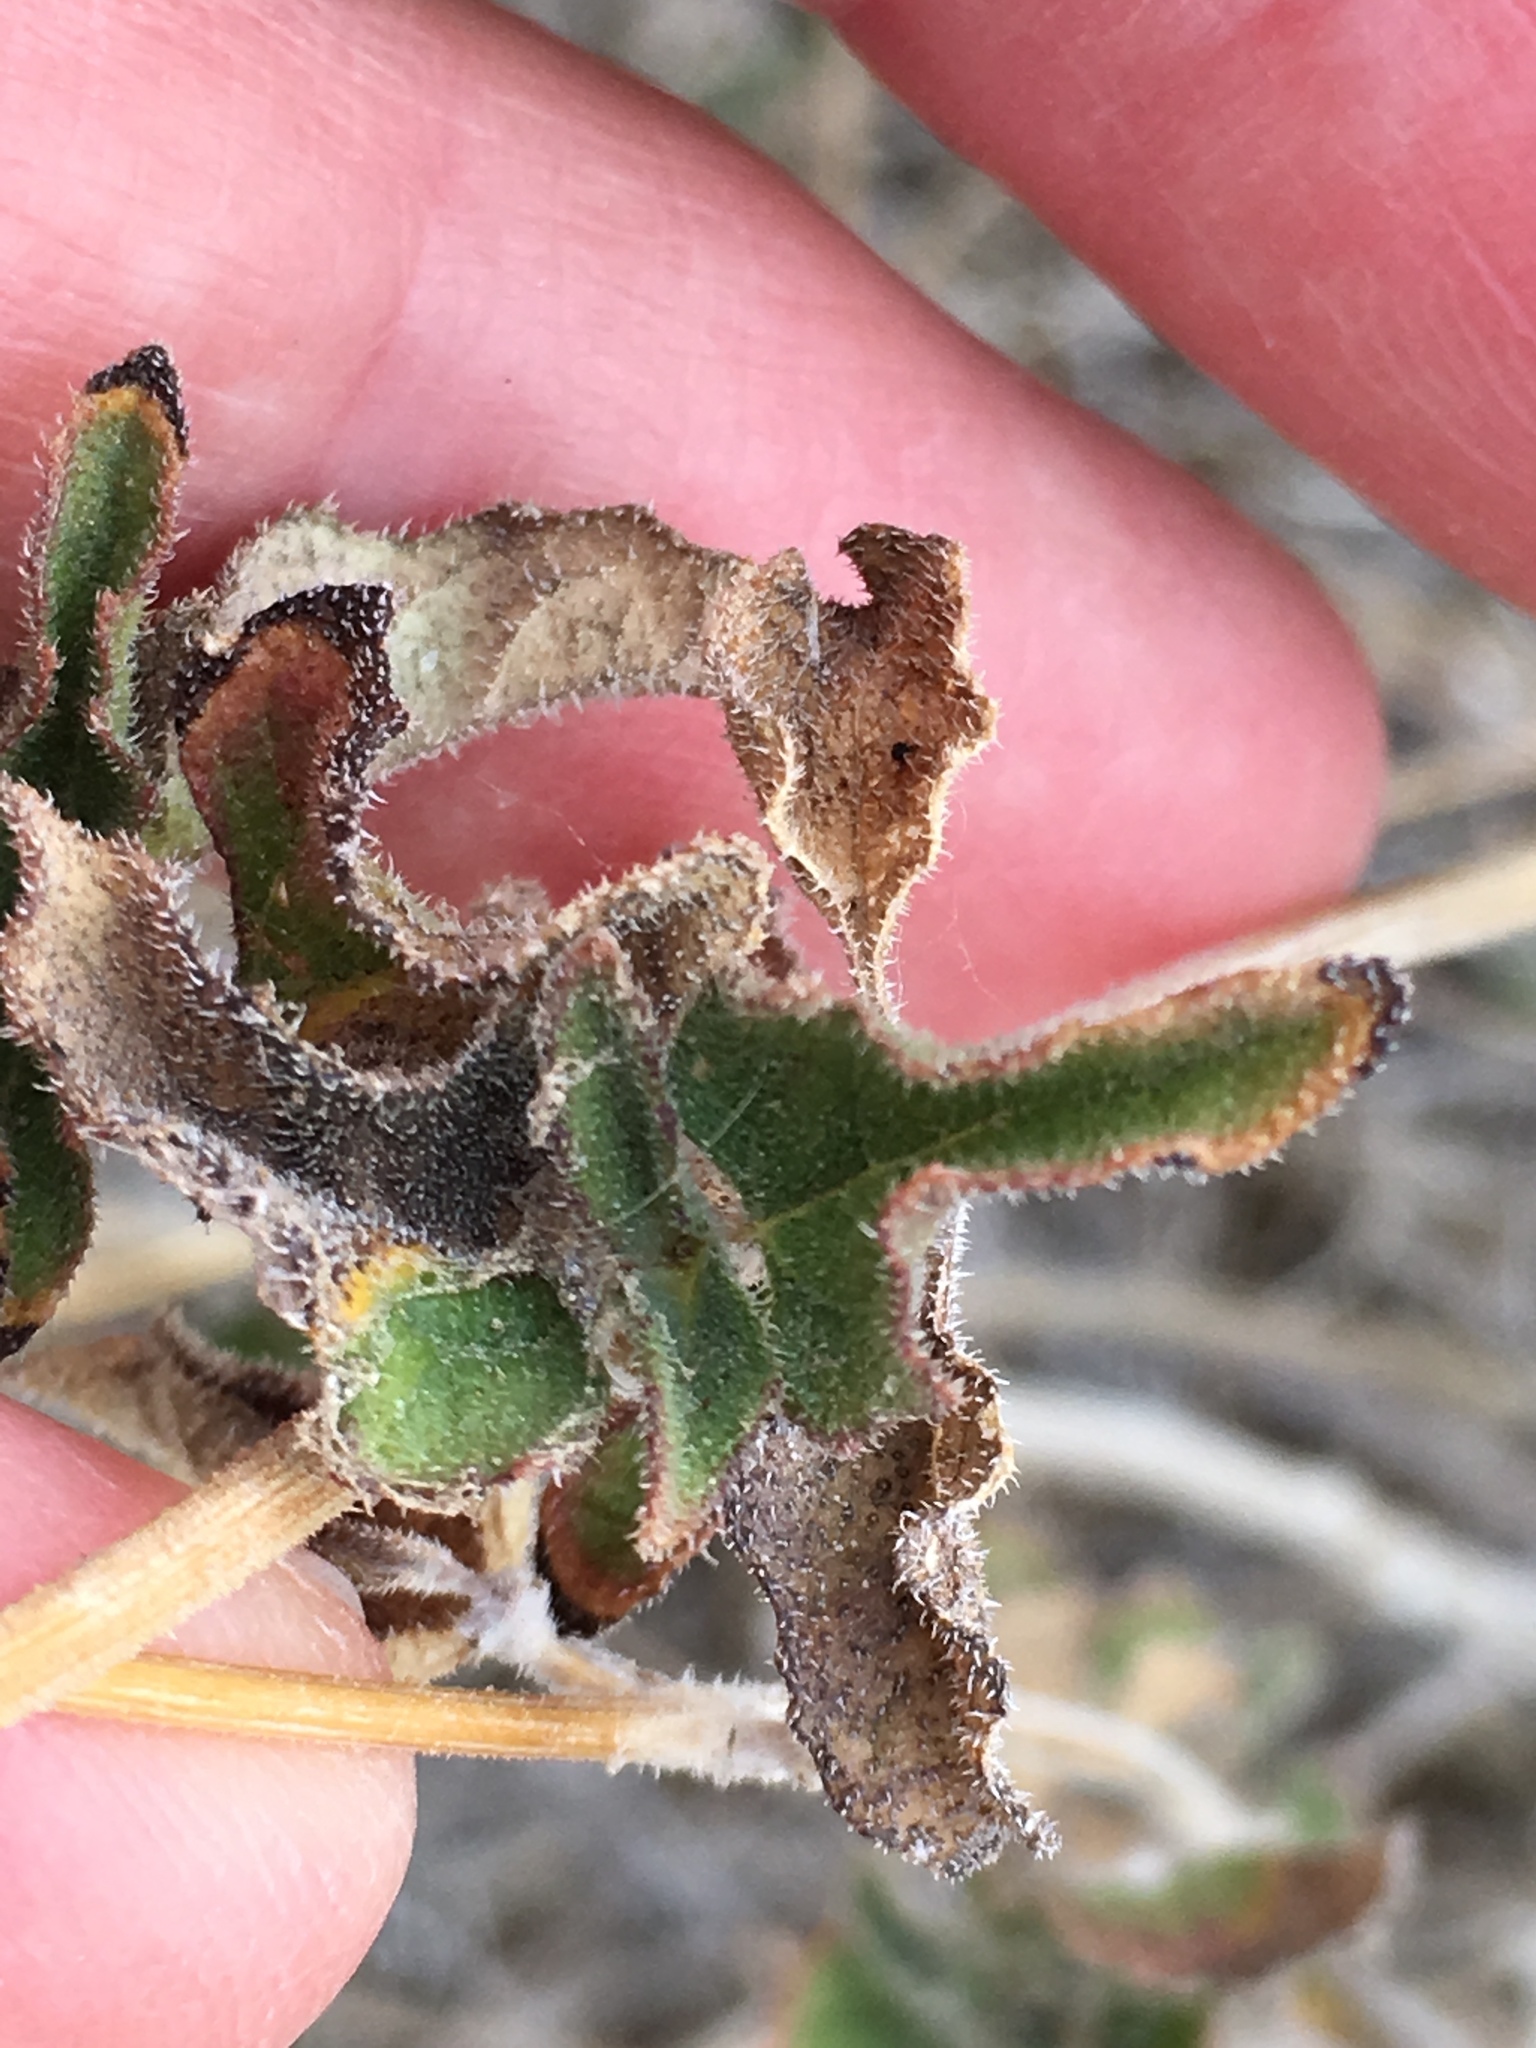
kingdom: Plantae
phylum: Tracheophyta
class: Magnoliopsida
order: Asterales
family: Asteraceae
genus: Bahiopsis
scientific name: Bahiopsis parishii
